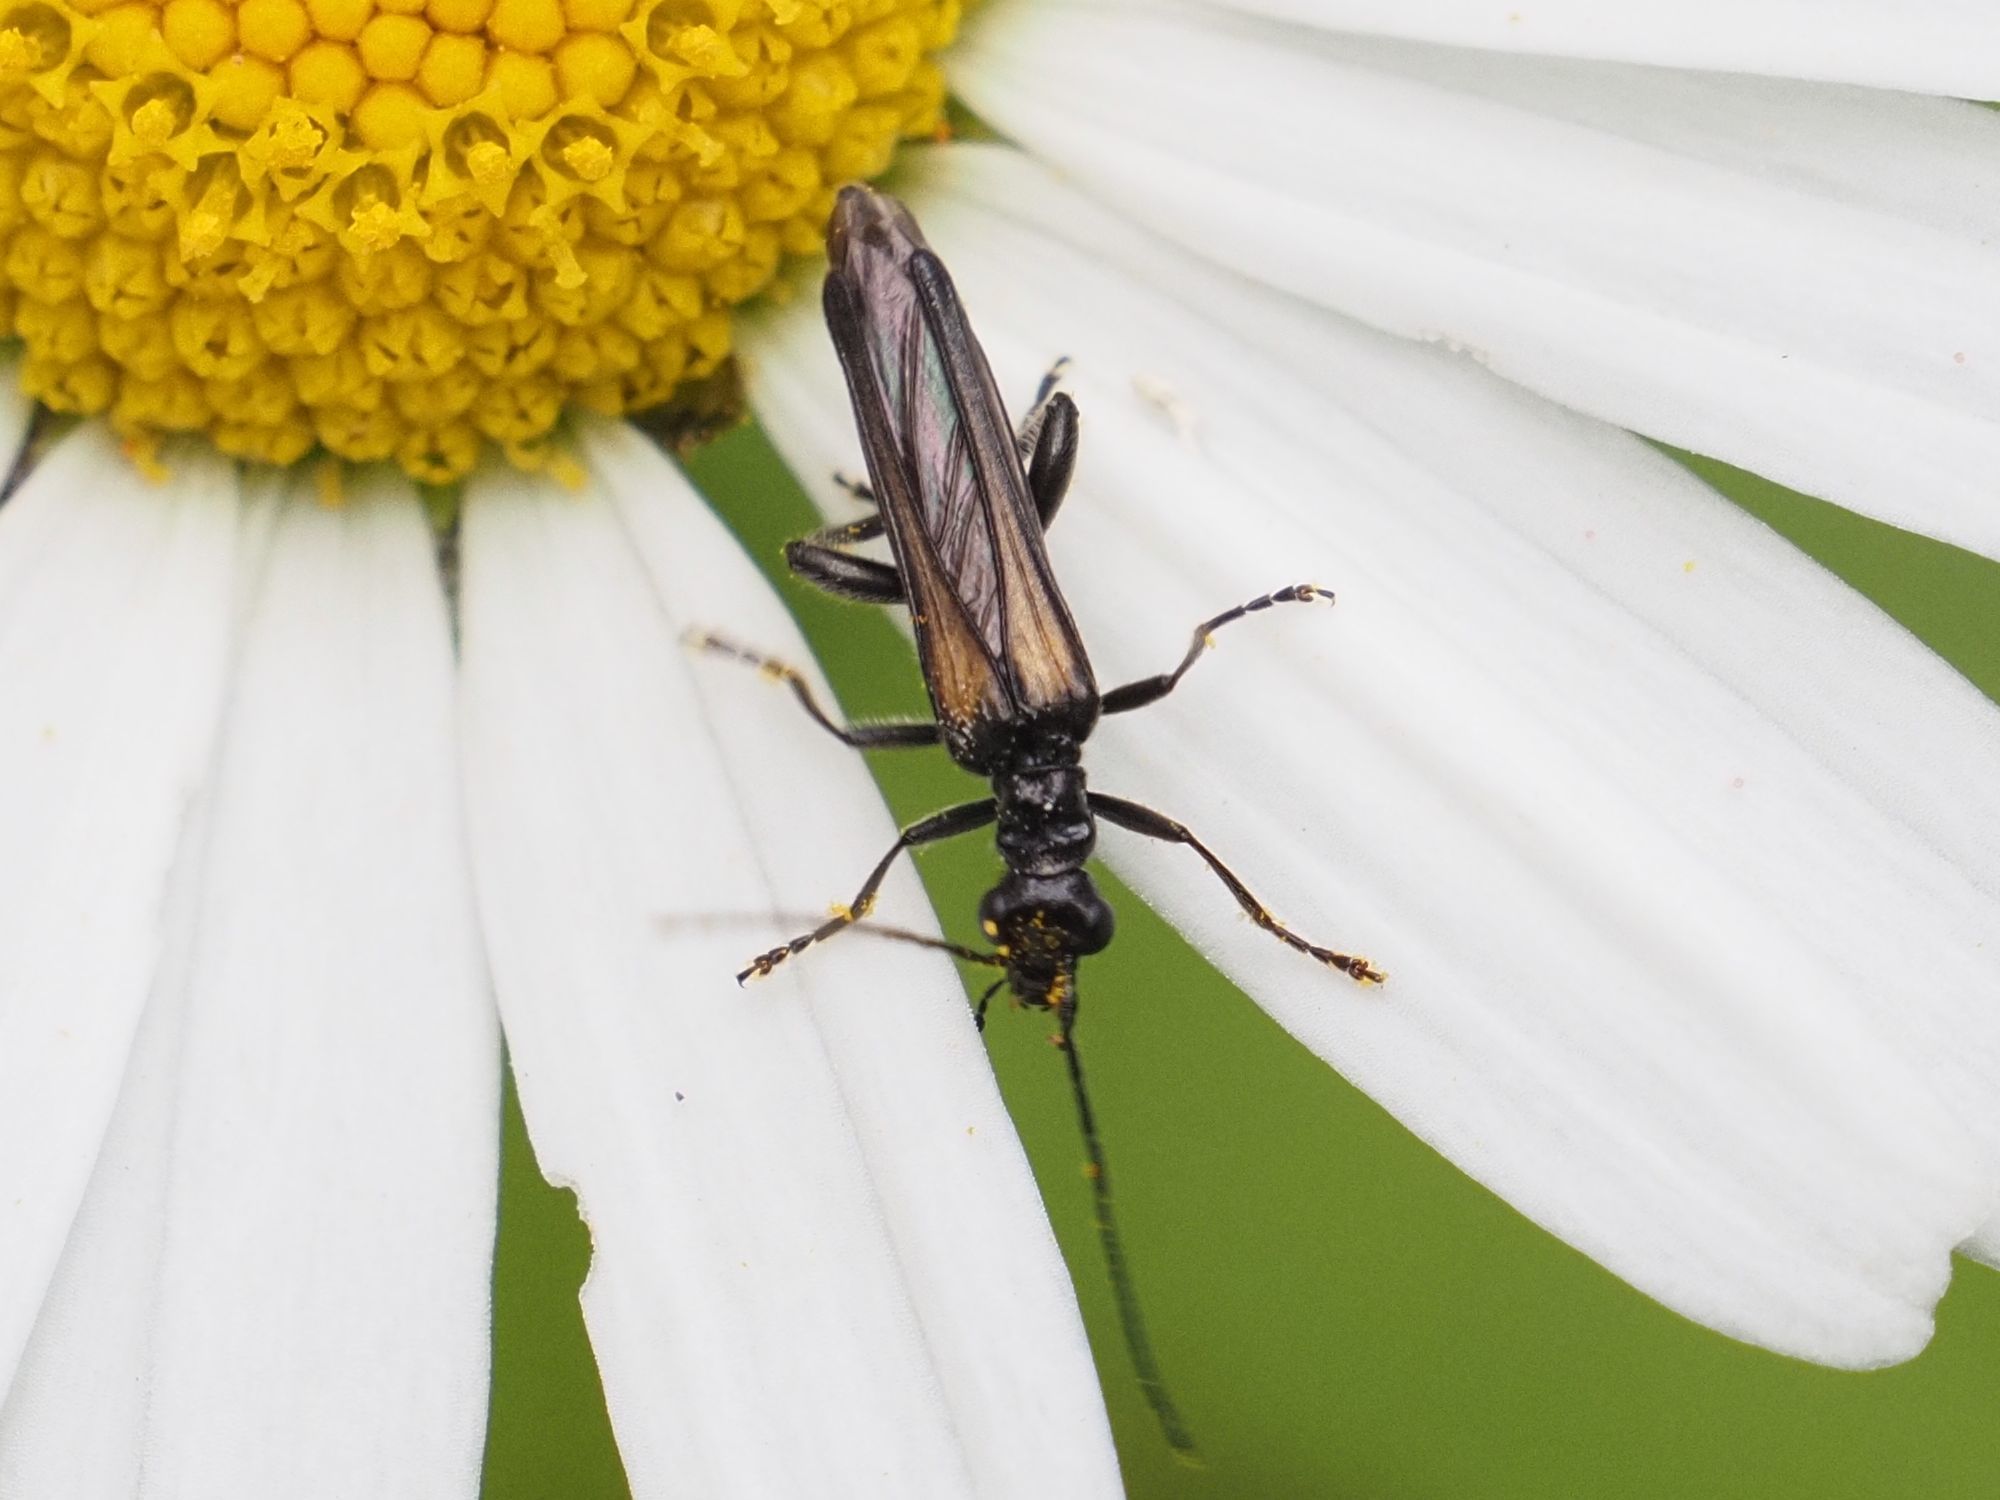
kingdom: Animalia
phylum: Arthropoda
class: Insecta
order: Coleoptera
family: Oedemeridae
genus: Oedemera
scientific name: Oedemera pthysica
